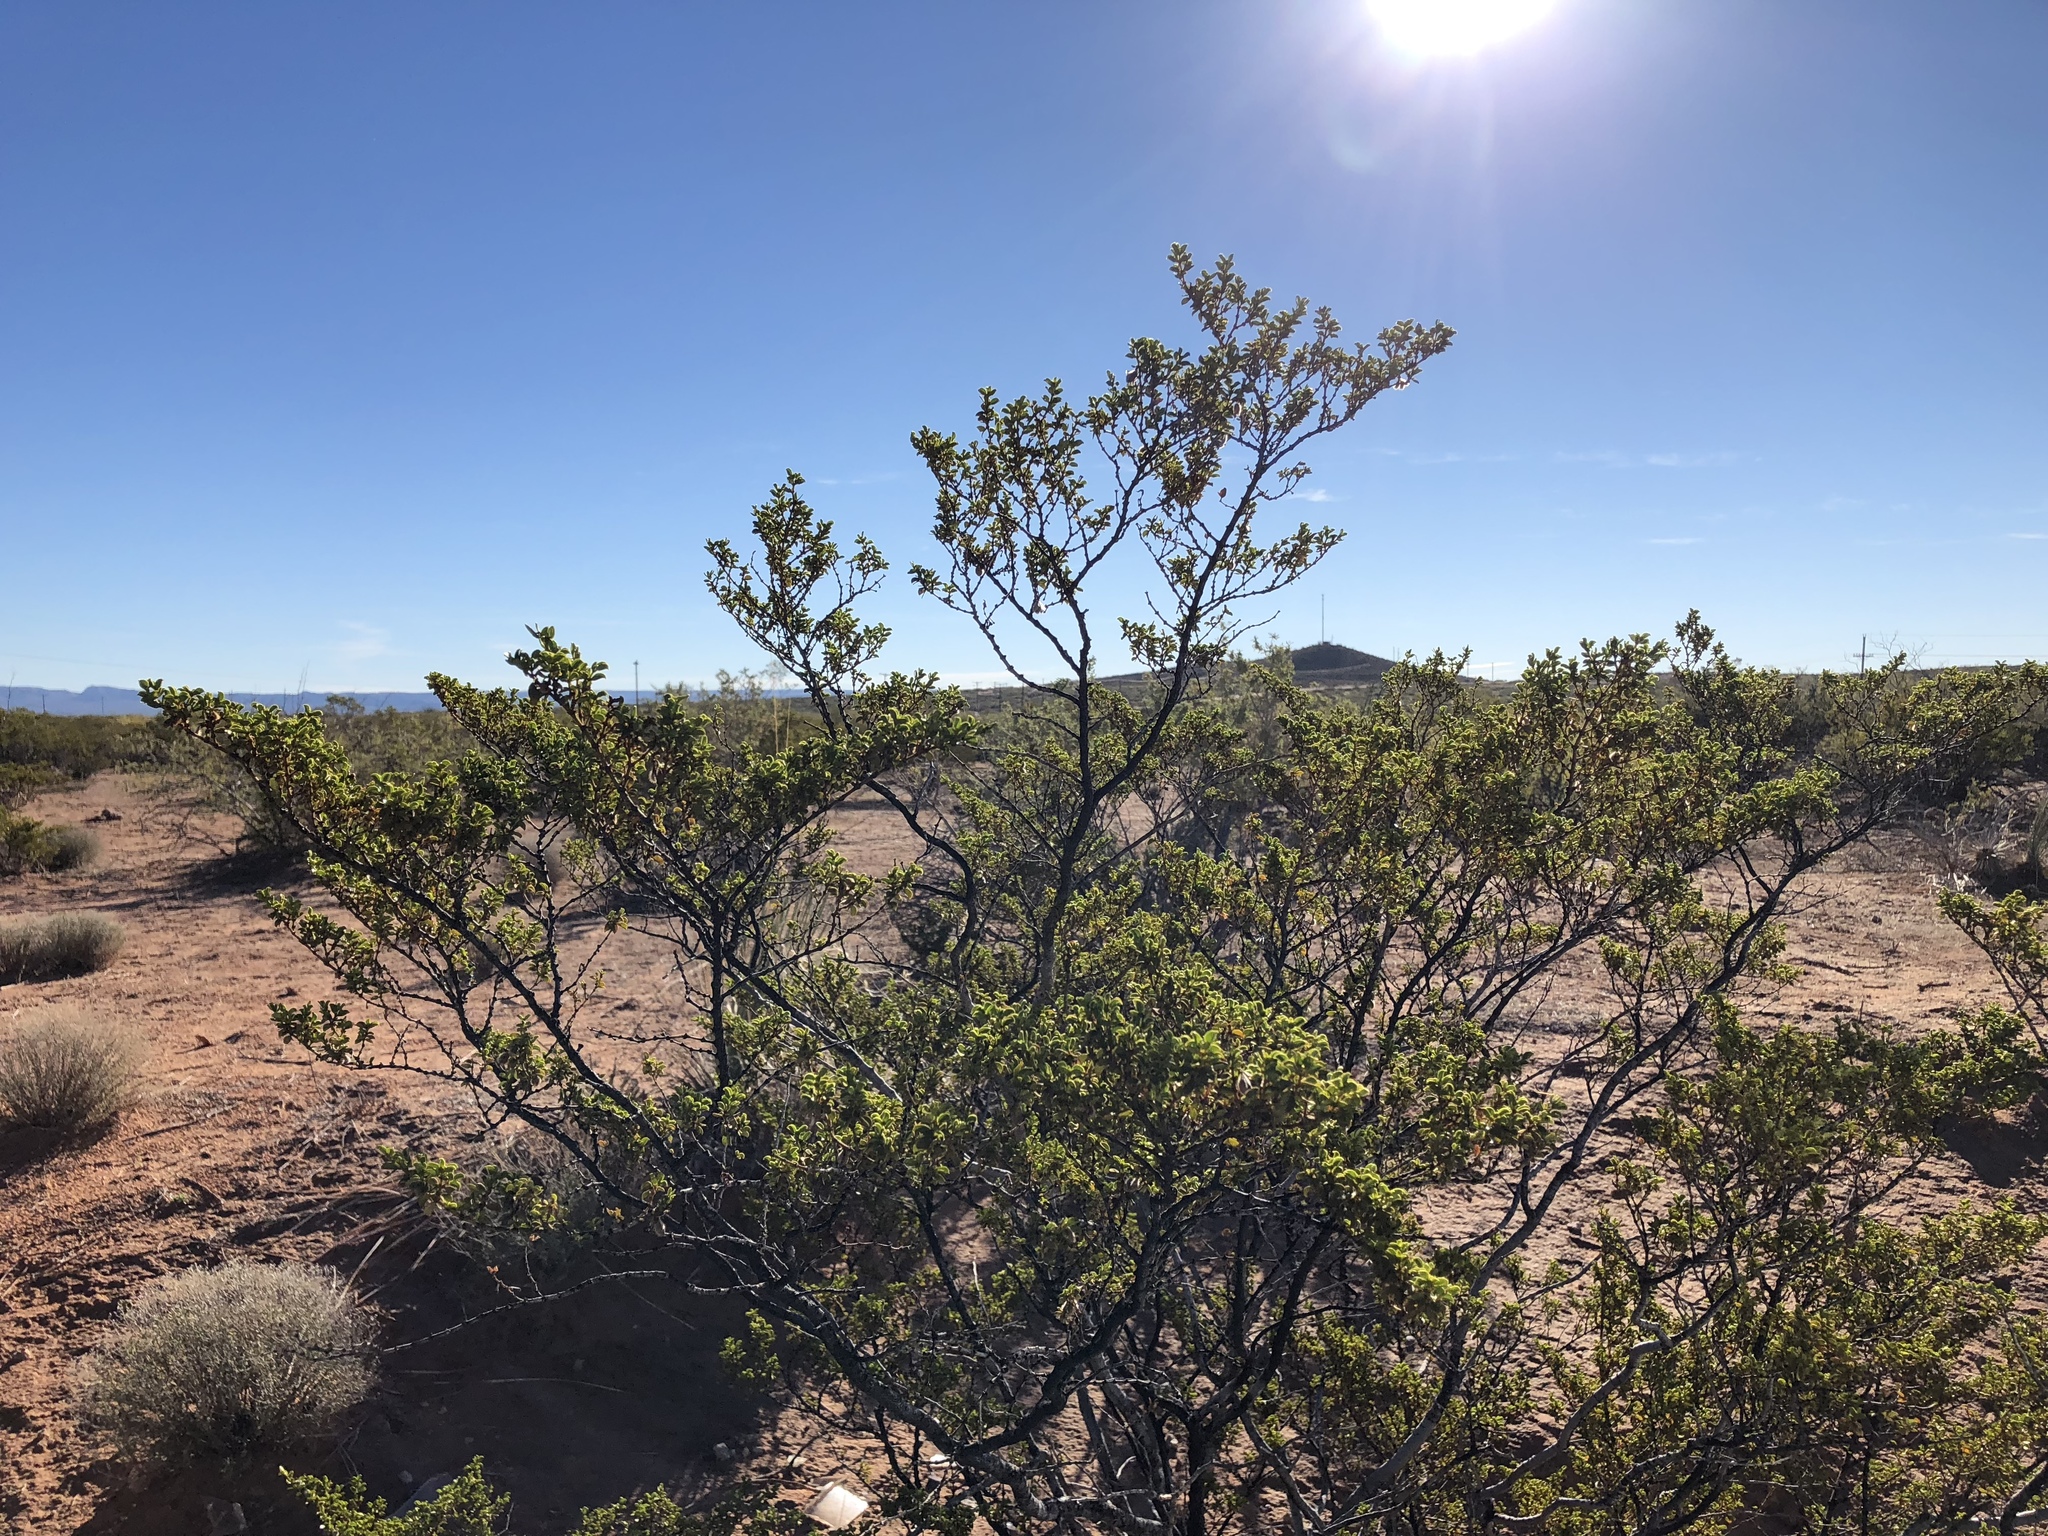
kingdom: Plantae
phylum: Tracheophyta
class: Magnoliopsida
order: Zygophyllales
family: Zygophyllaceae
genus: Larrea
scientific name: Larrea tridentata
